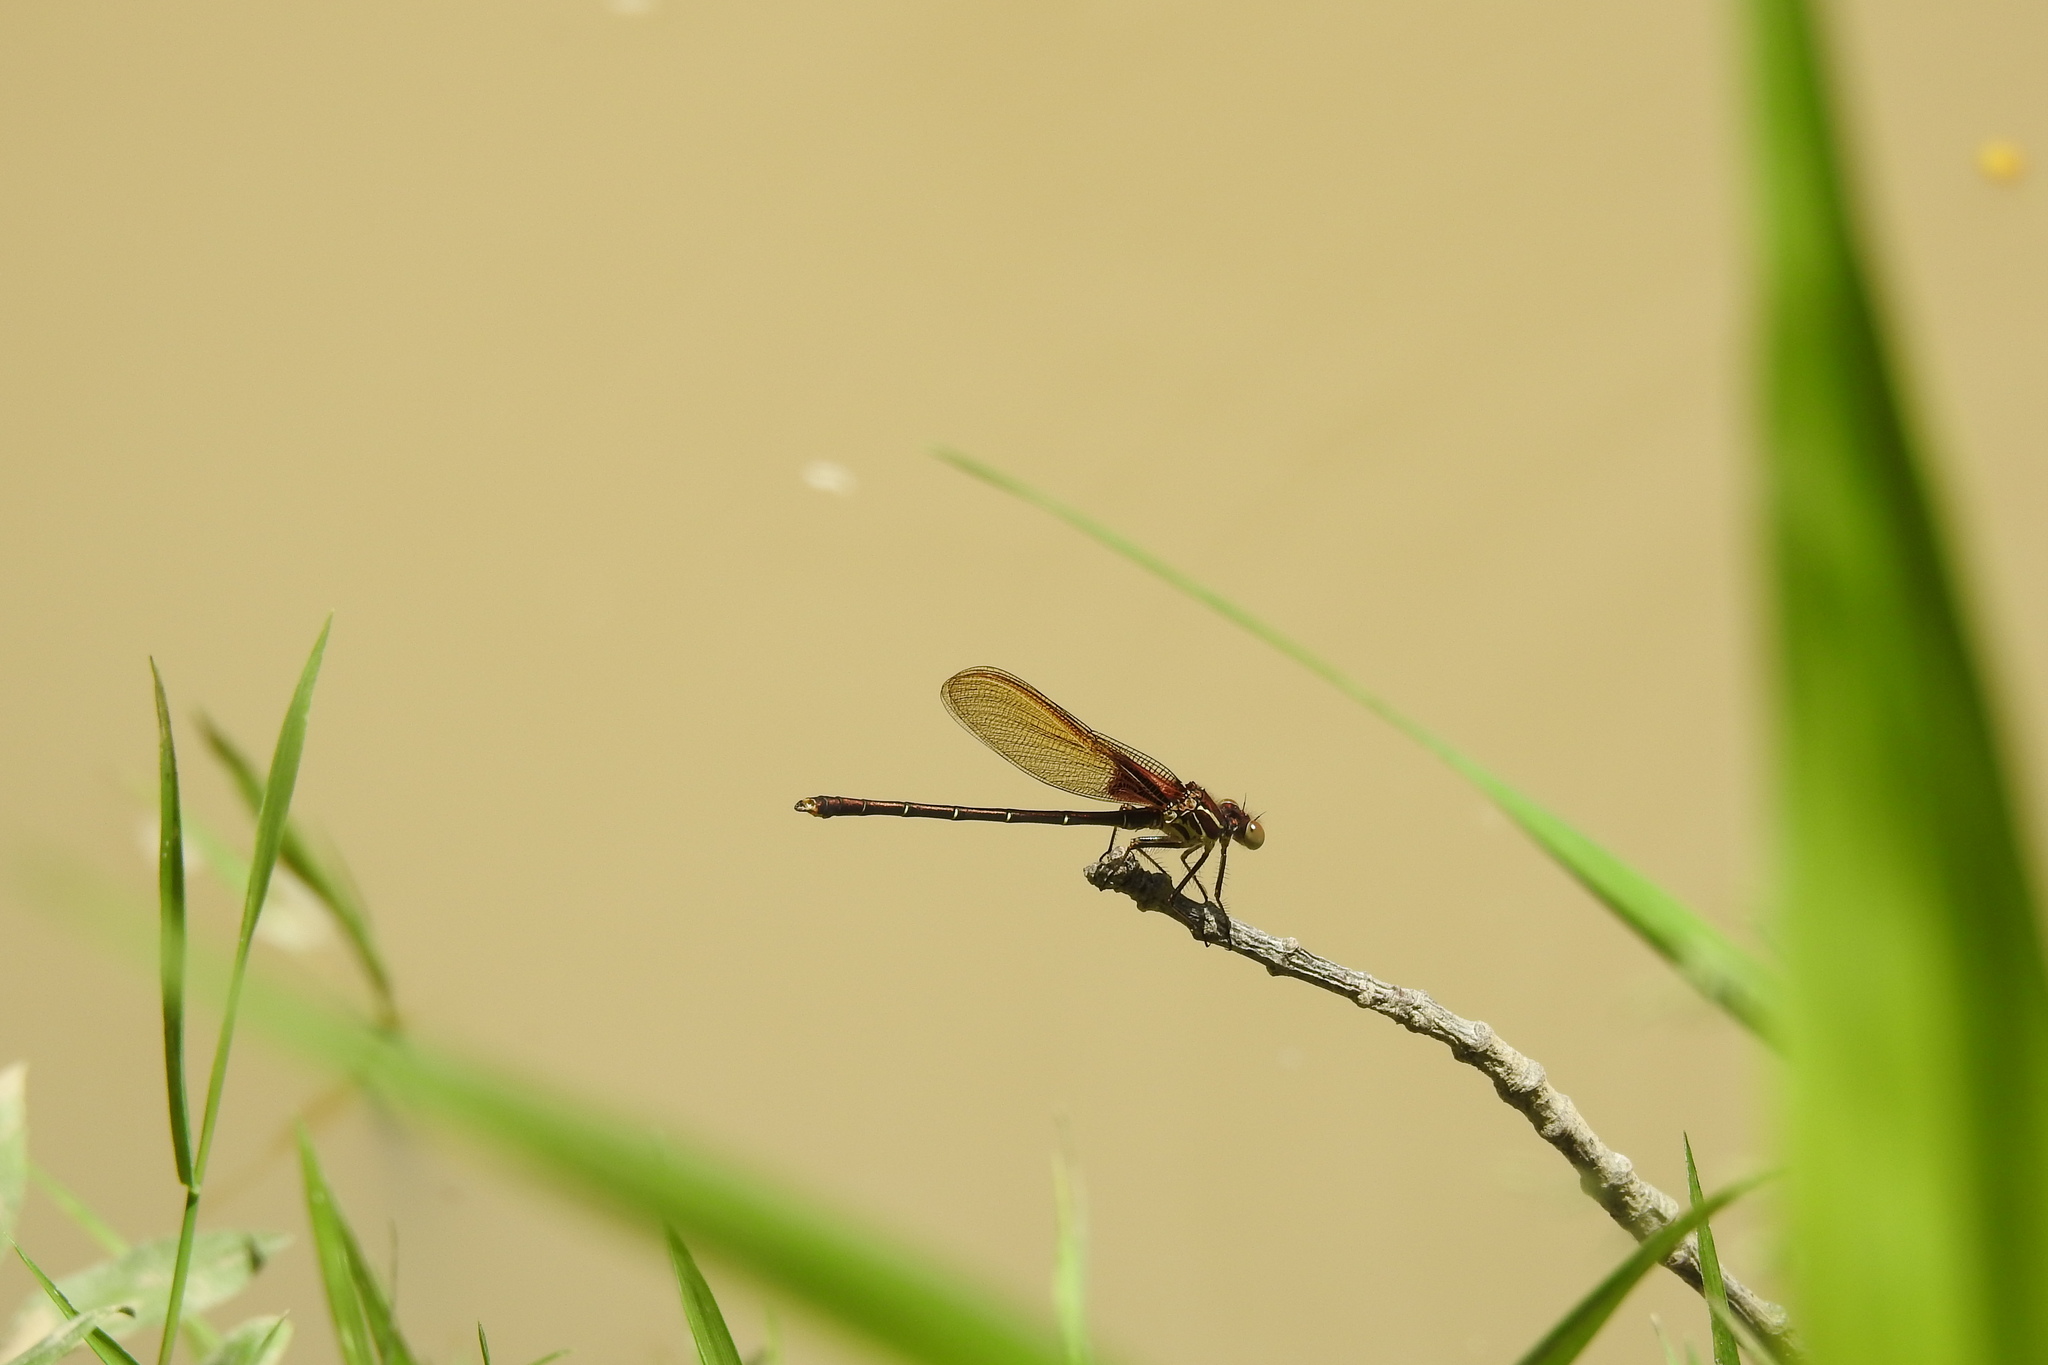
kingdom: Animalia
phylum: Arthropoda
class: Insecta
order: Odonata
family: Calopterygidae
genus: Hetaerina
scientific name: Hetaerina americana
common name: American rubyspot
